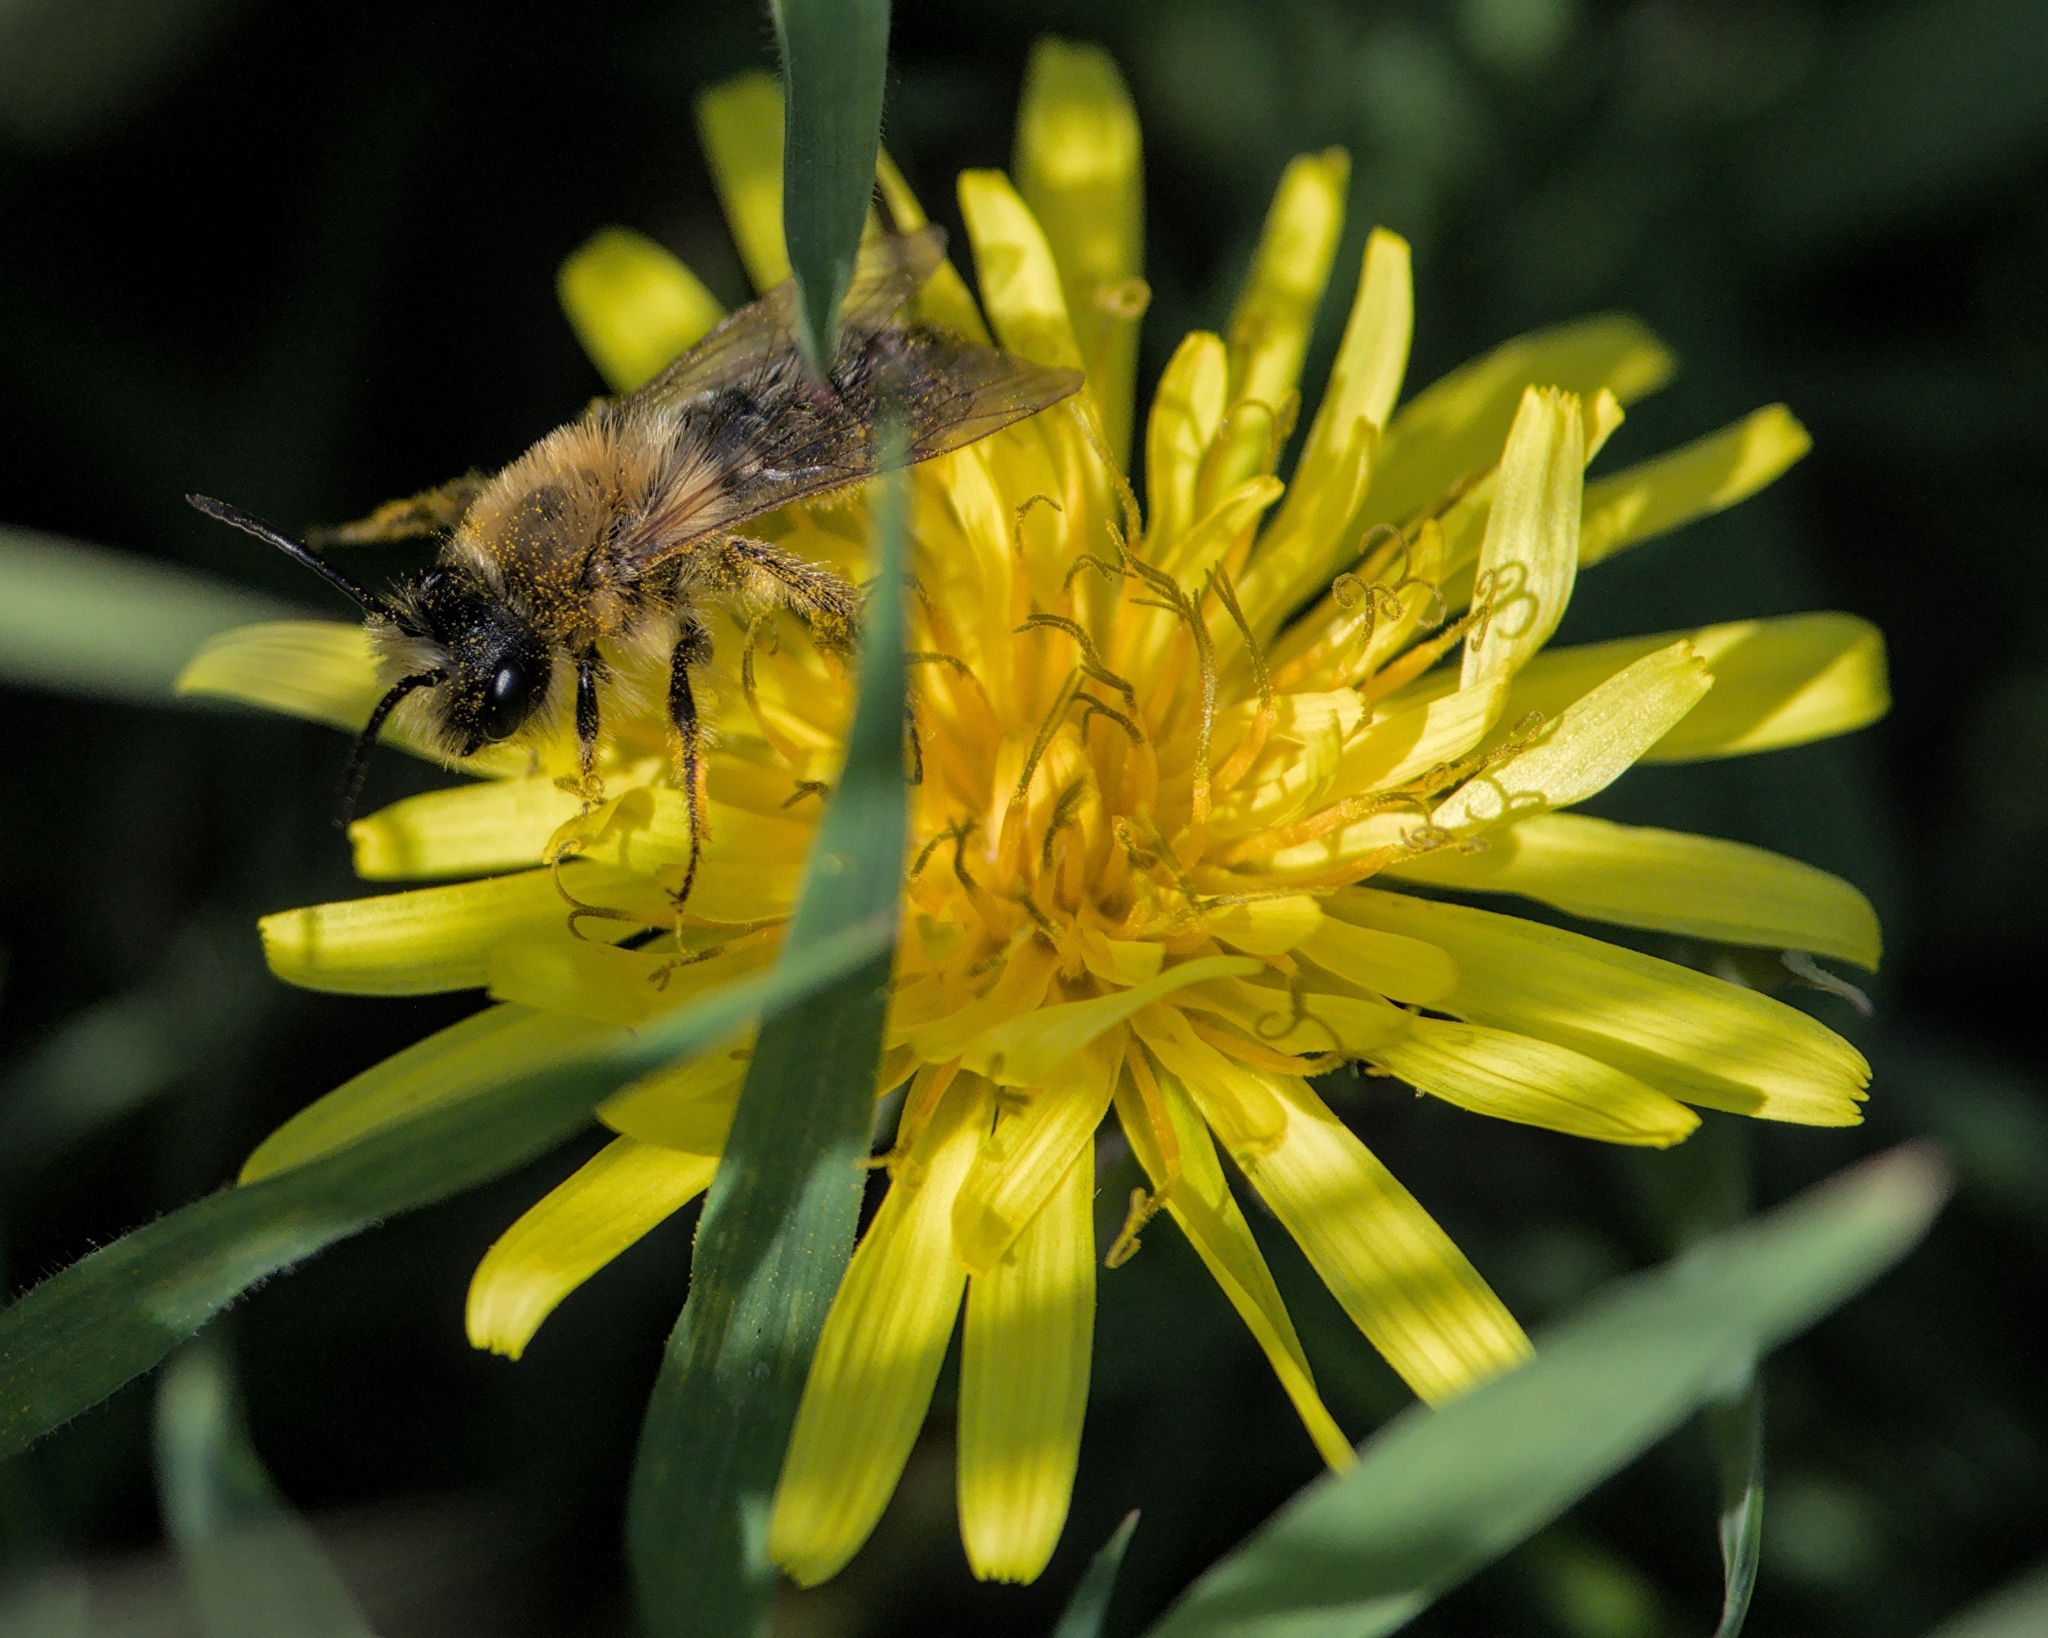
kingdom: Animalia
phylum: Arthropoda
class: Insecta
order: Hymenoptera
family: Andrenidae
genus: Andrena
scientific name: Andrena nitida
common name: Grey-patched mining bee
